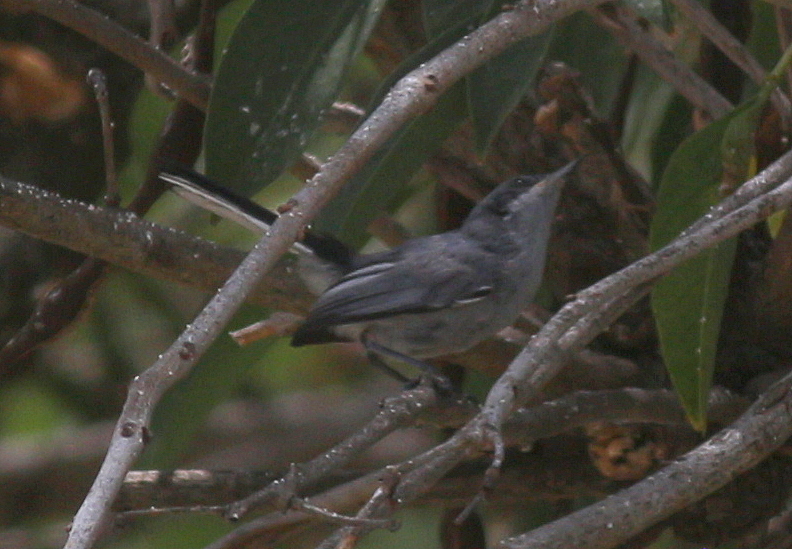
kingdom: Animalia
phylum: Chordata
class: Aves
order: Passeriformes
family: Polioptilidae
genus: Polioptila
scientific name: Polioptila dumicola
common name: Masked gnatcatcher
